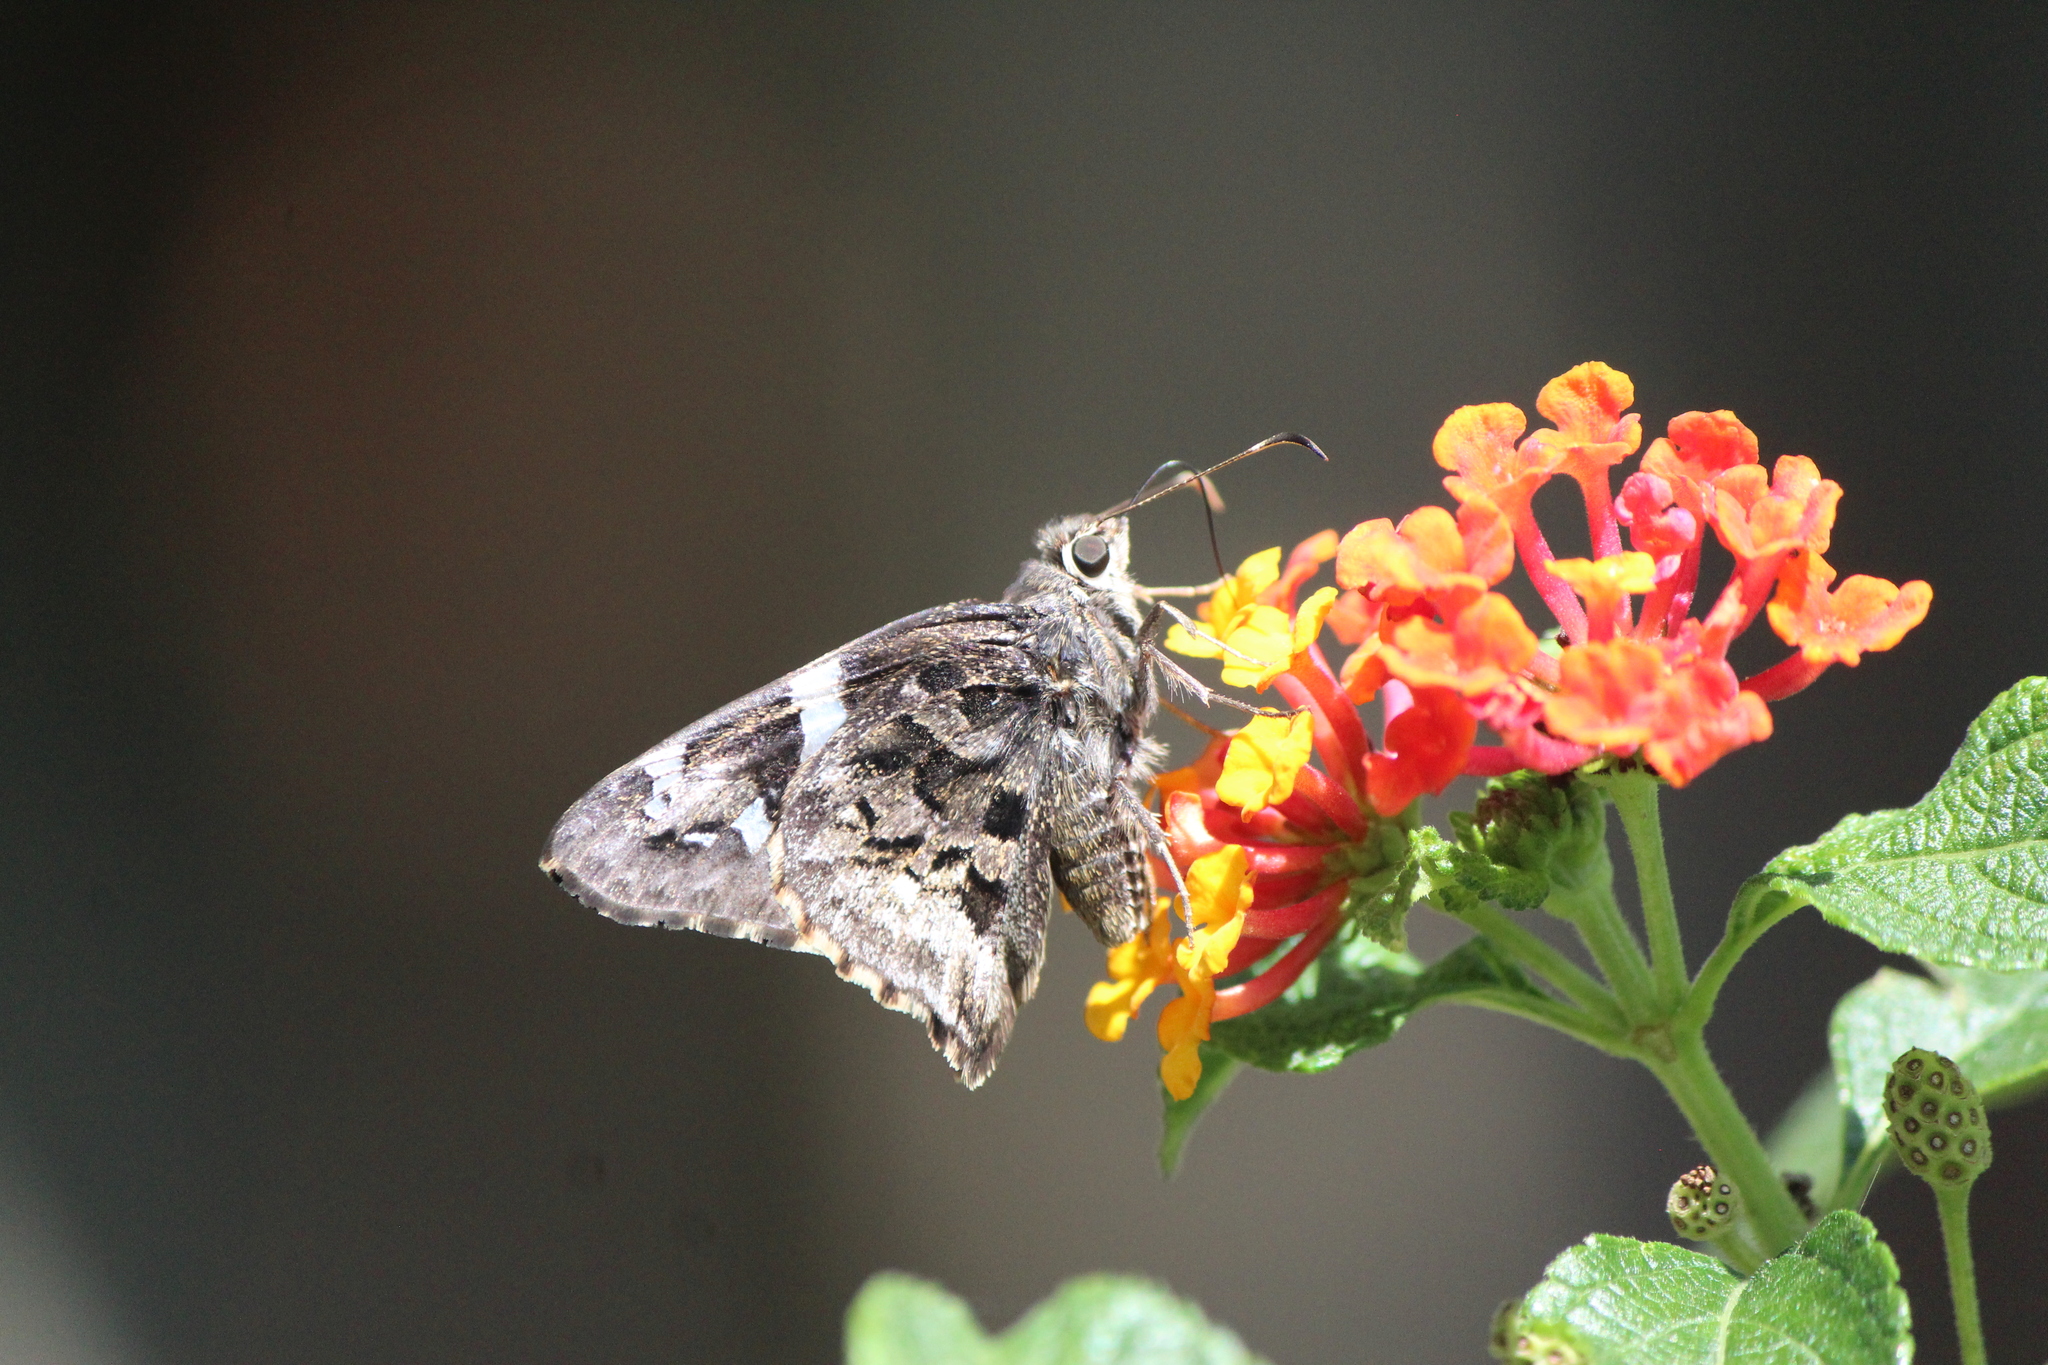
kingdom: Animalia
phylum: Arthropoda
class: Insecta
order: Lepidoptera
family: Hesperiidae
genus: Codatractus
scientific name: Codatractus bryaxis
